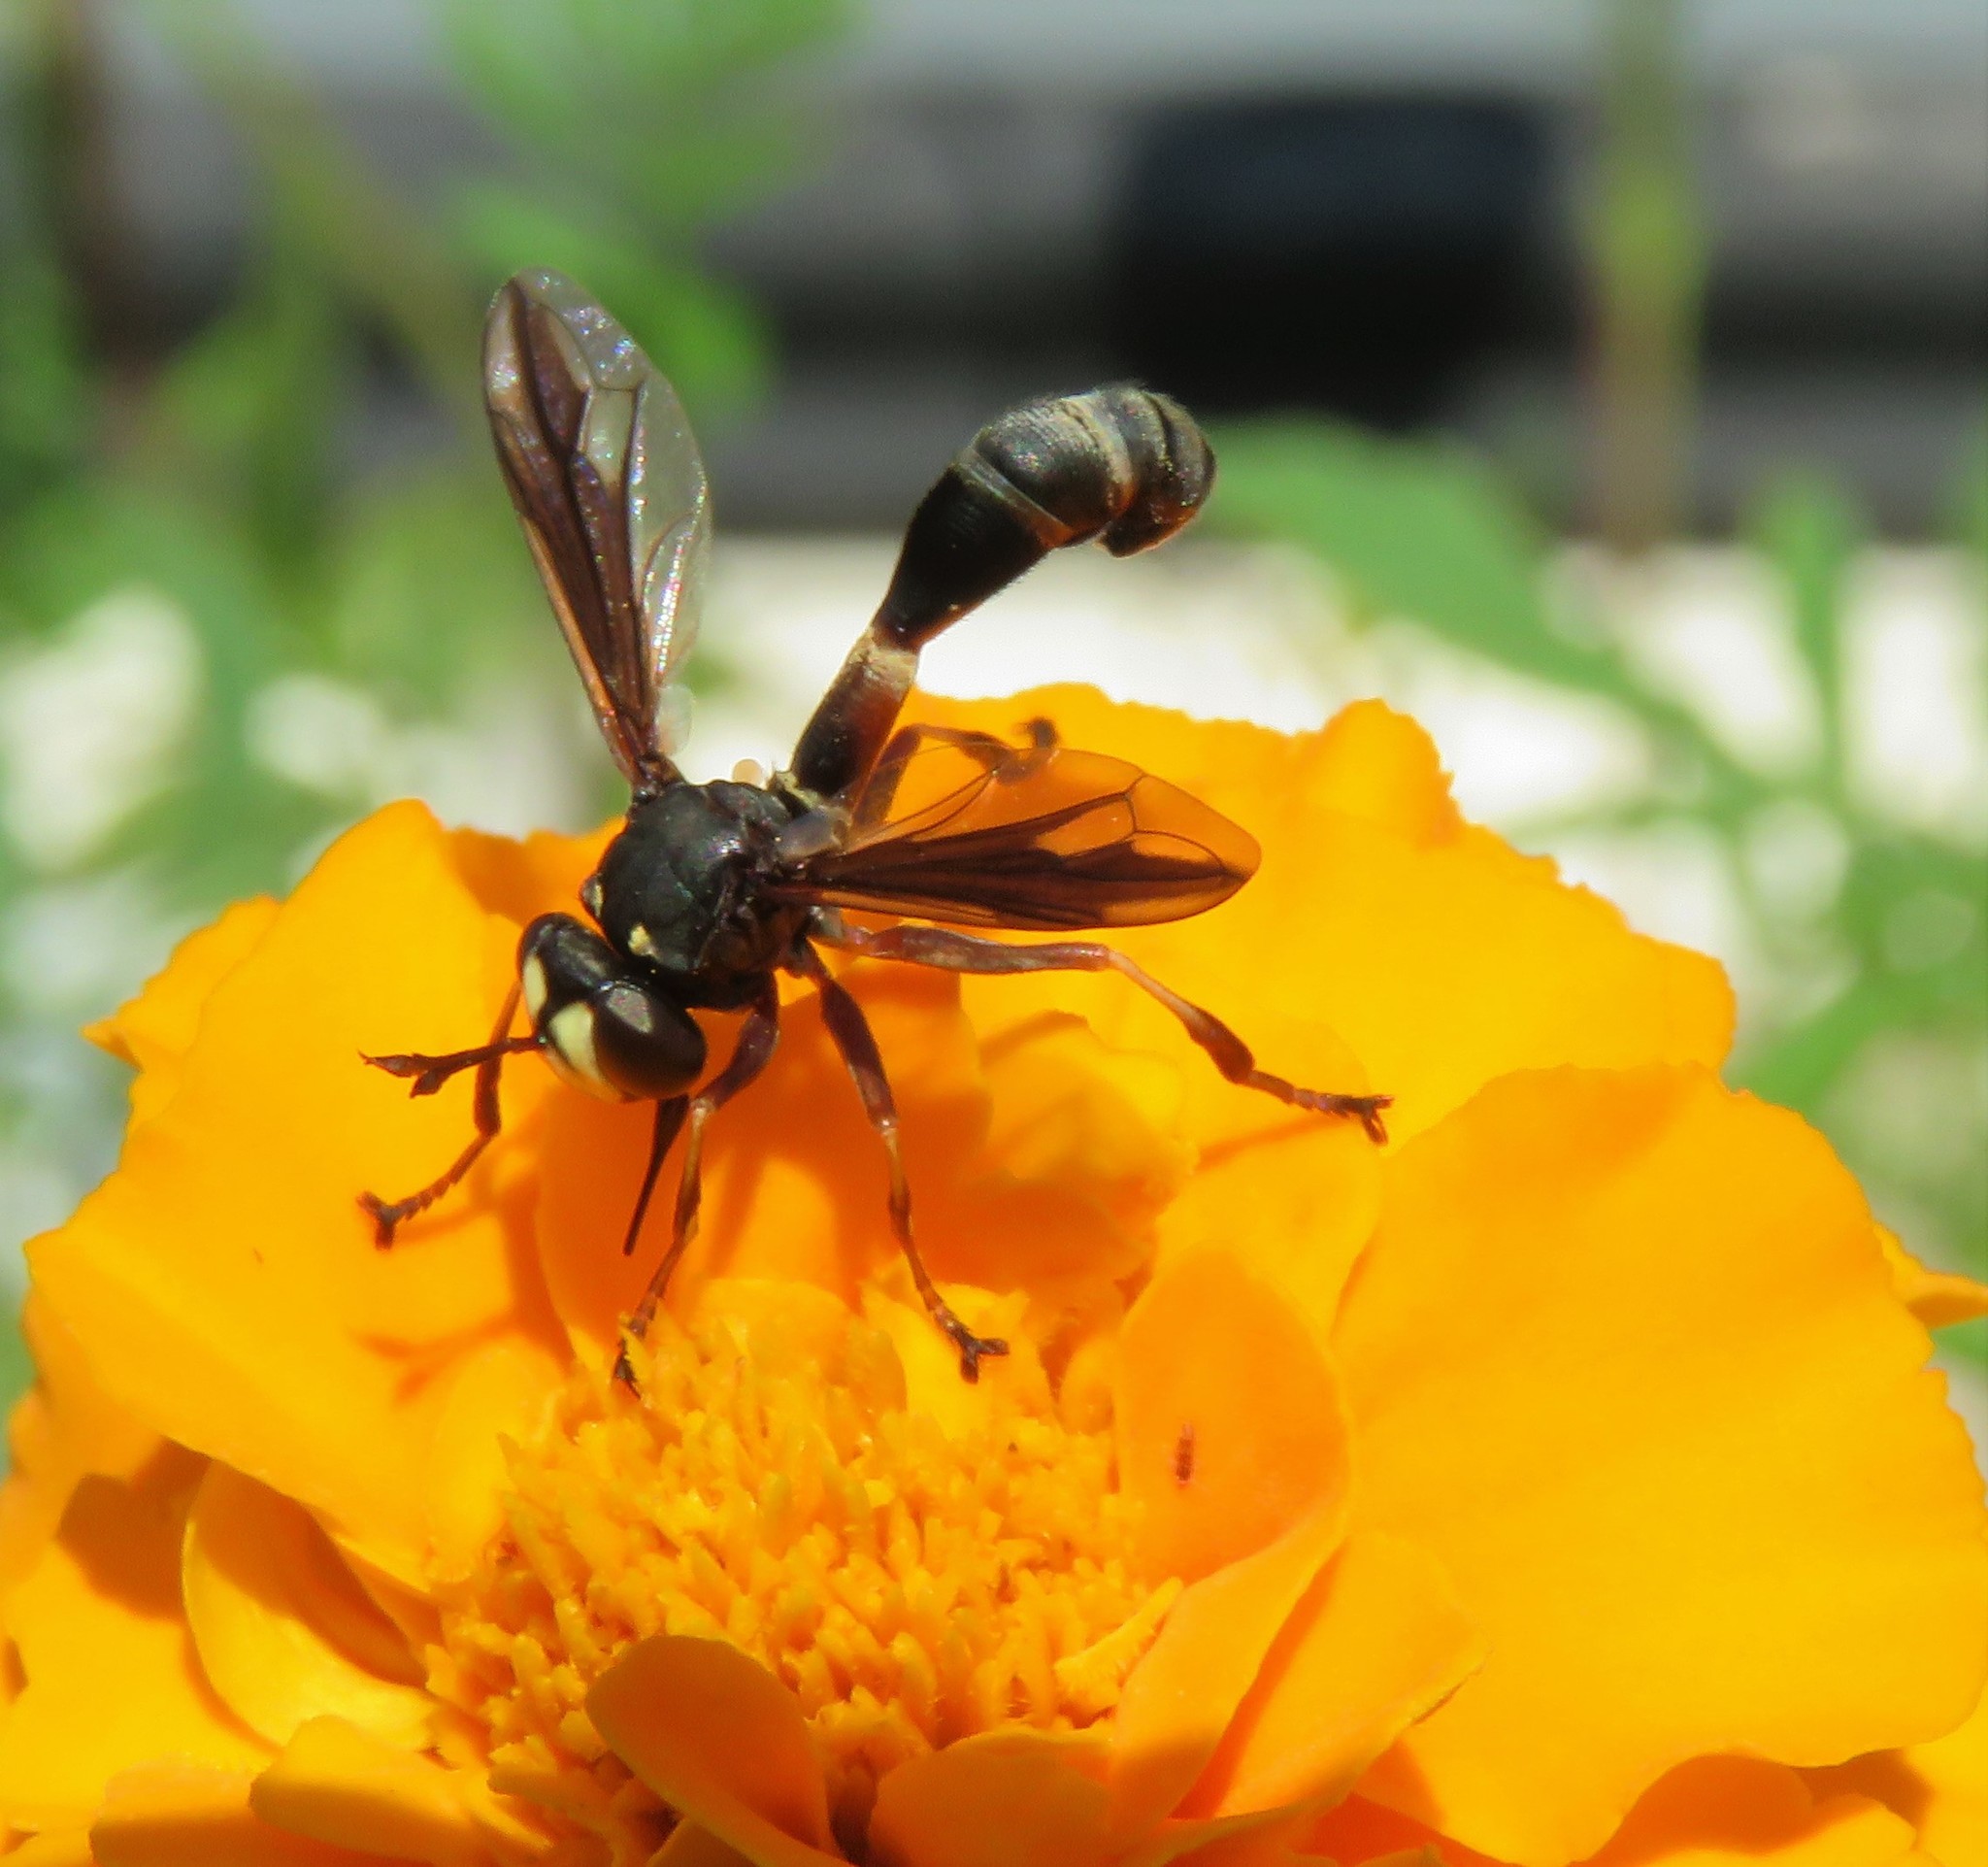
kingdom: Animalia
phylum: Arthropoda
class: Insecta
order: Diptera
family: Conopidae
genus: Physocephala
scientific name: Physocephala furcillata
